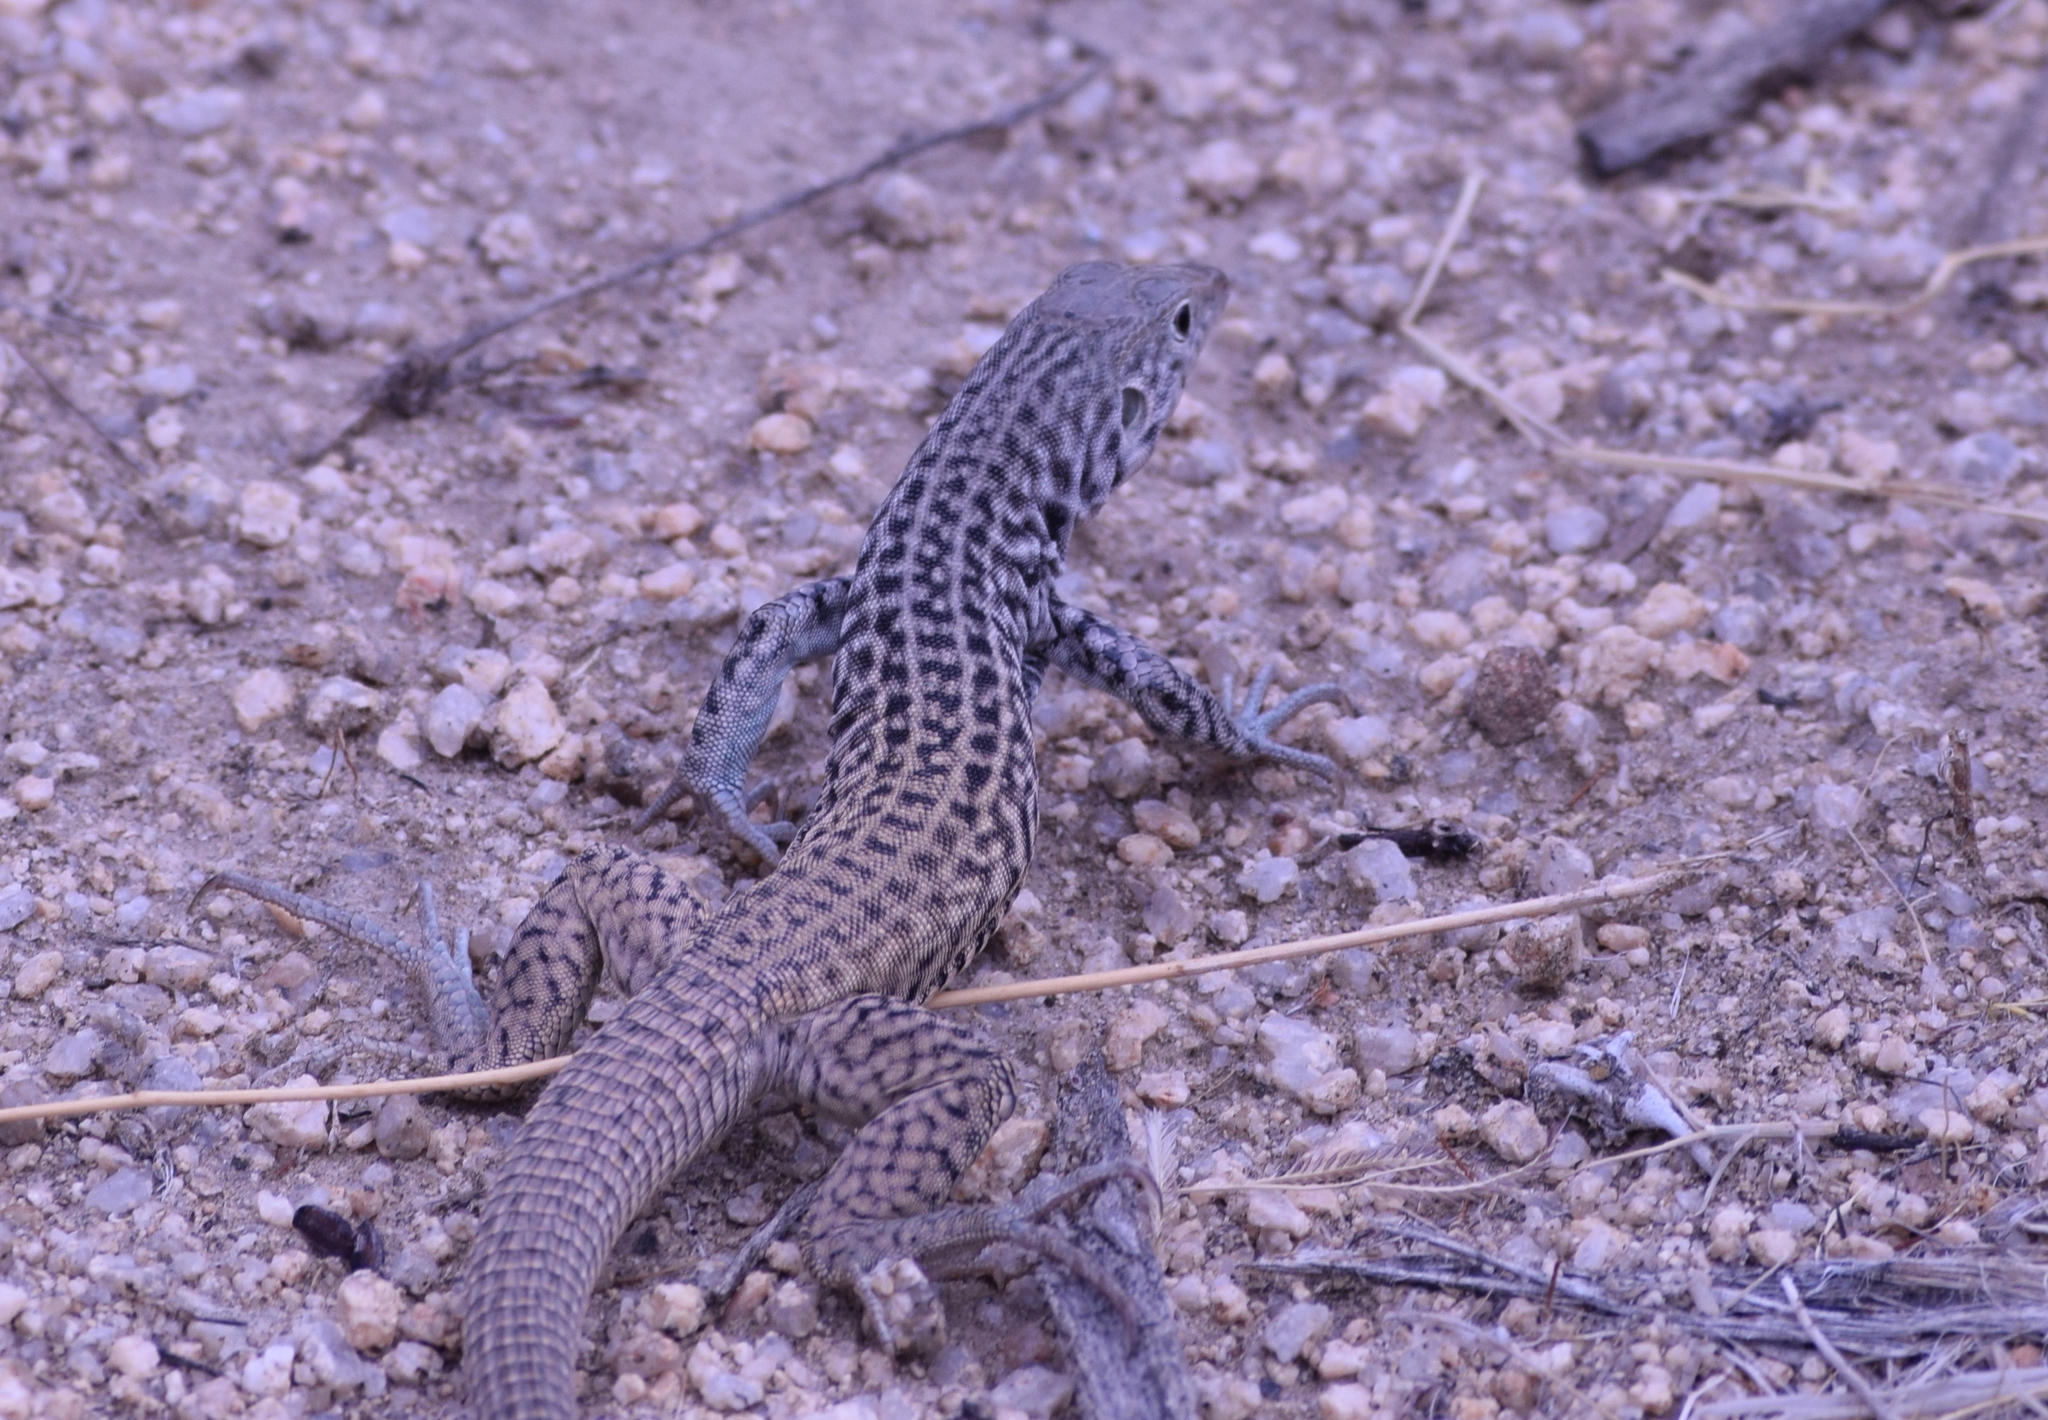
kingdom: Animalia
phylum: Chordata
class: Squamata
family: Teiidae
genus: Aspidoscelis
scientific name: Aspidoscelis tigris
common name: Tiger whiptail
